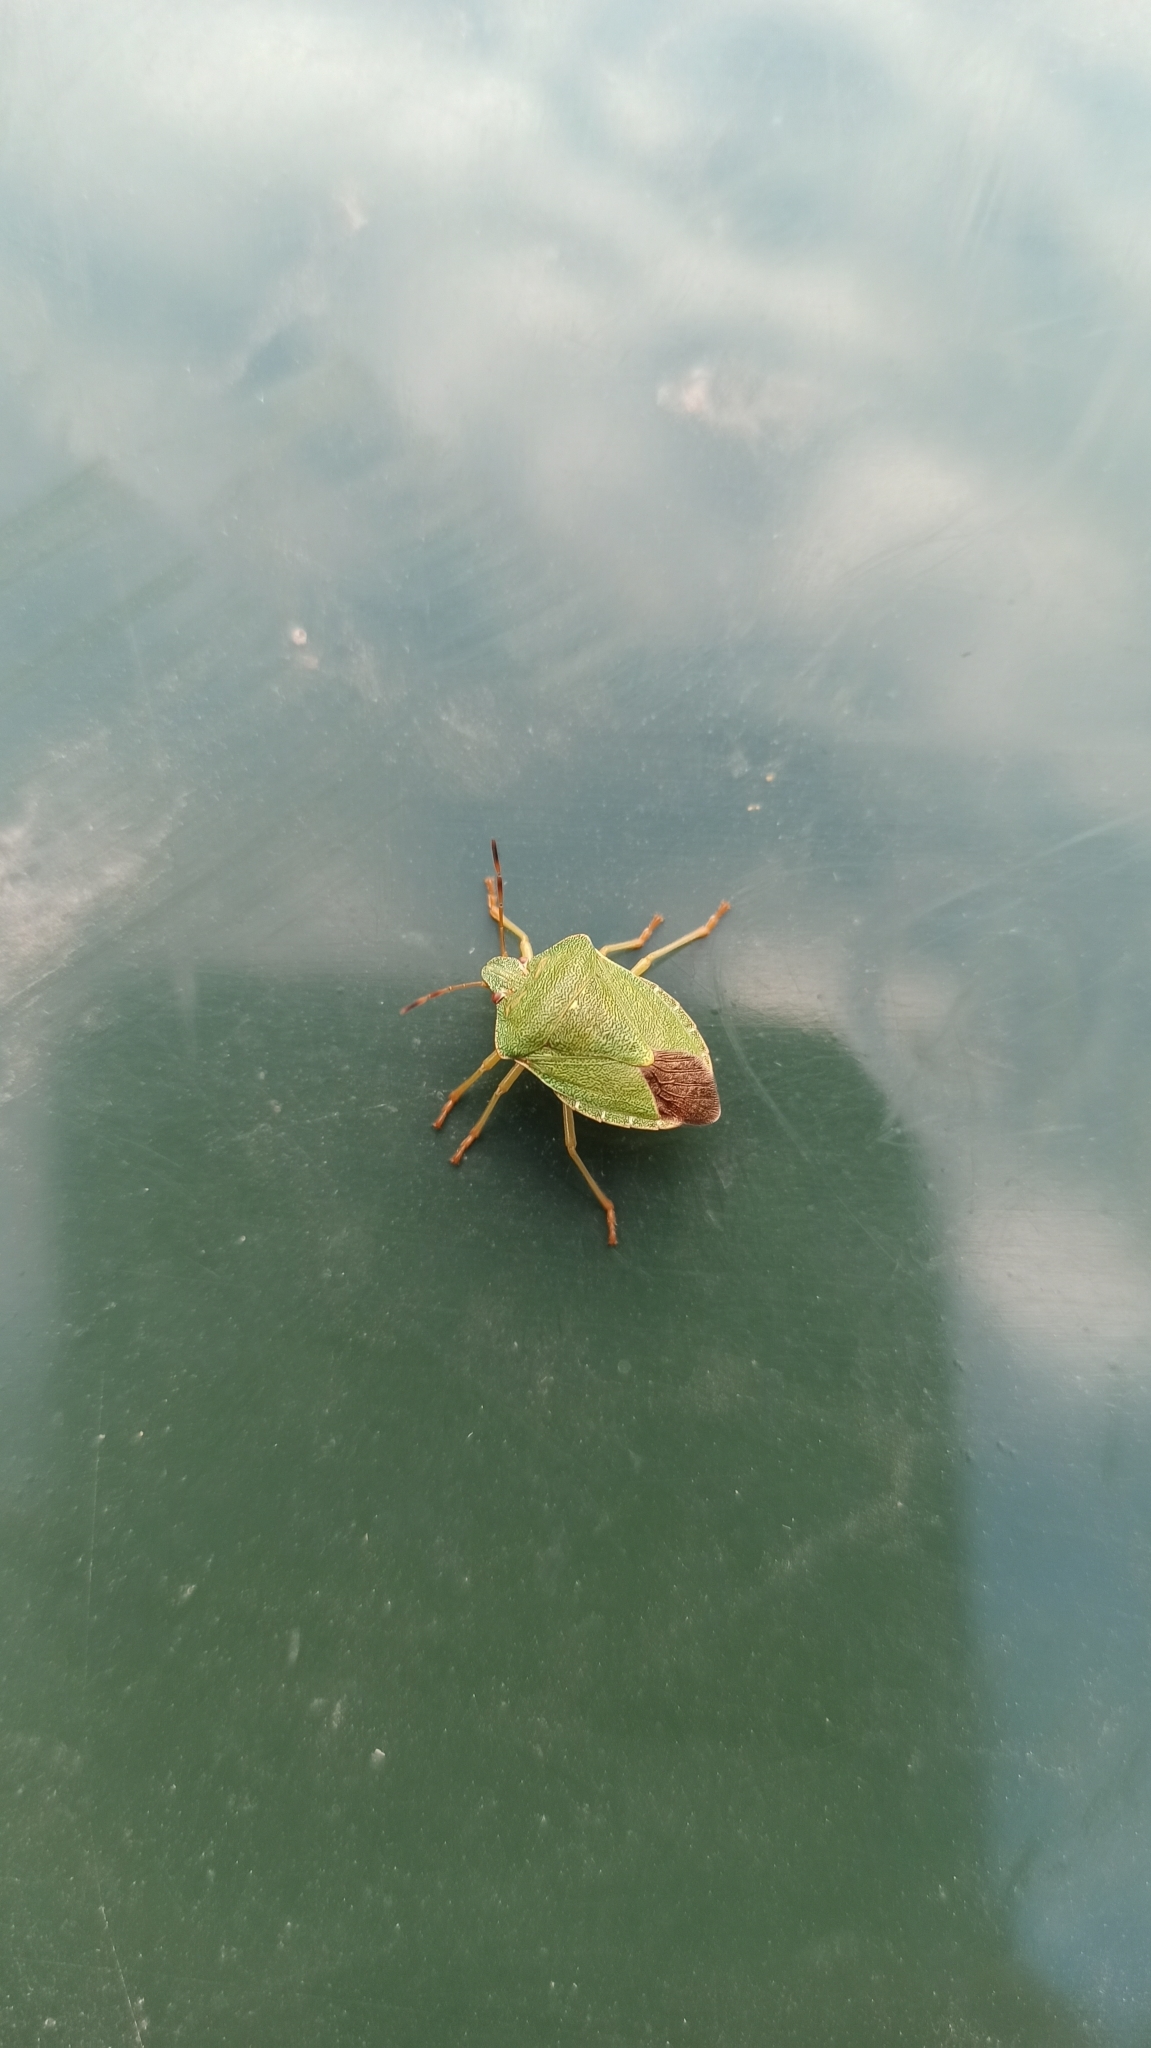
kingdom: Animalia
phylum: Arthropoda
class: Insecta
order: Hemiptera
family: Pentatomidae
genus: Palomena
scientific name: Palomena prasina
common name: Green shieldbug
